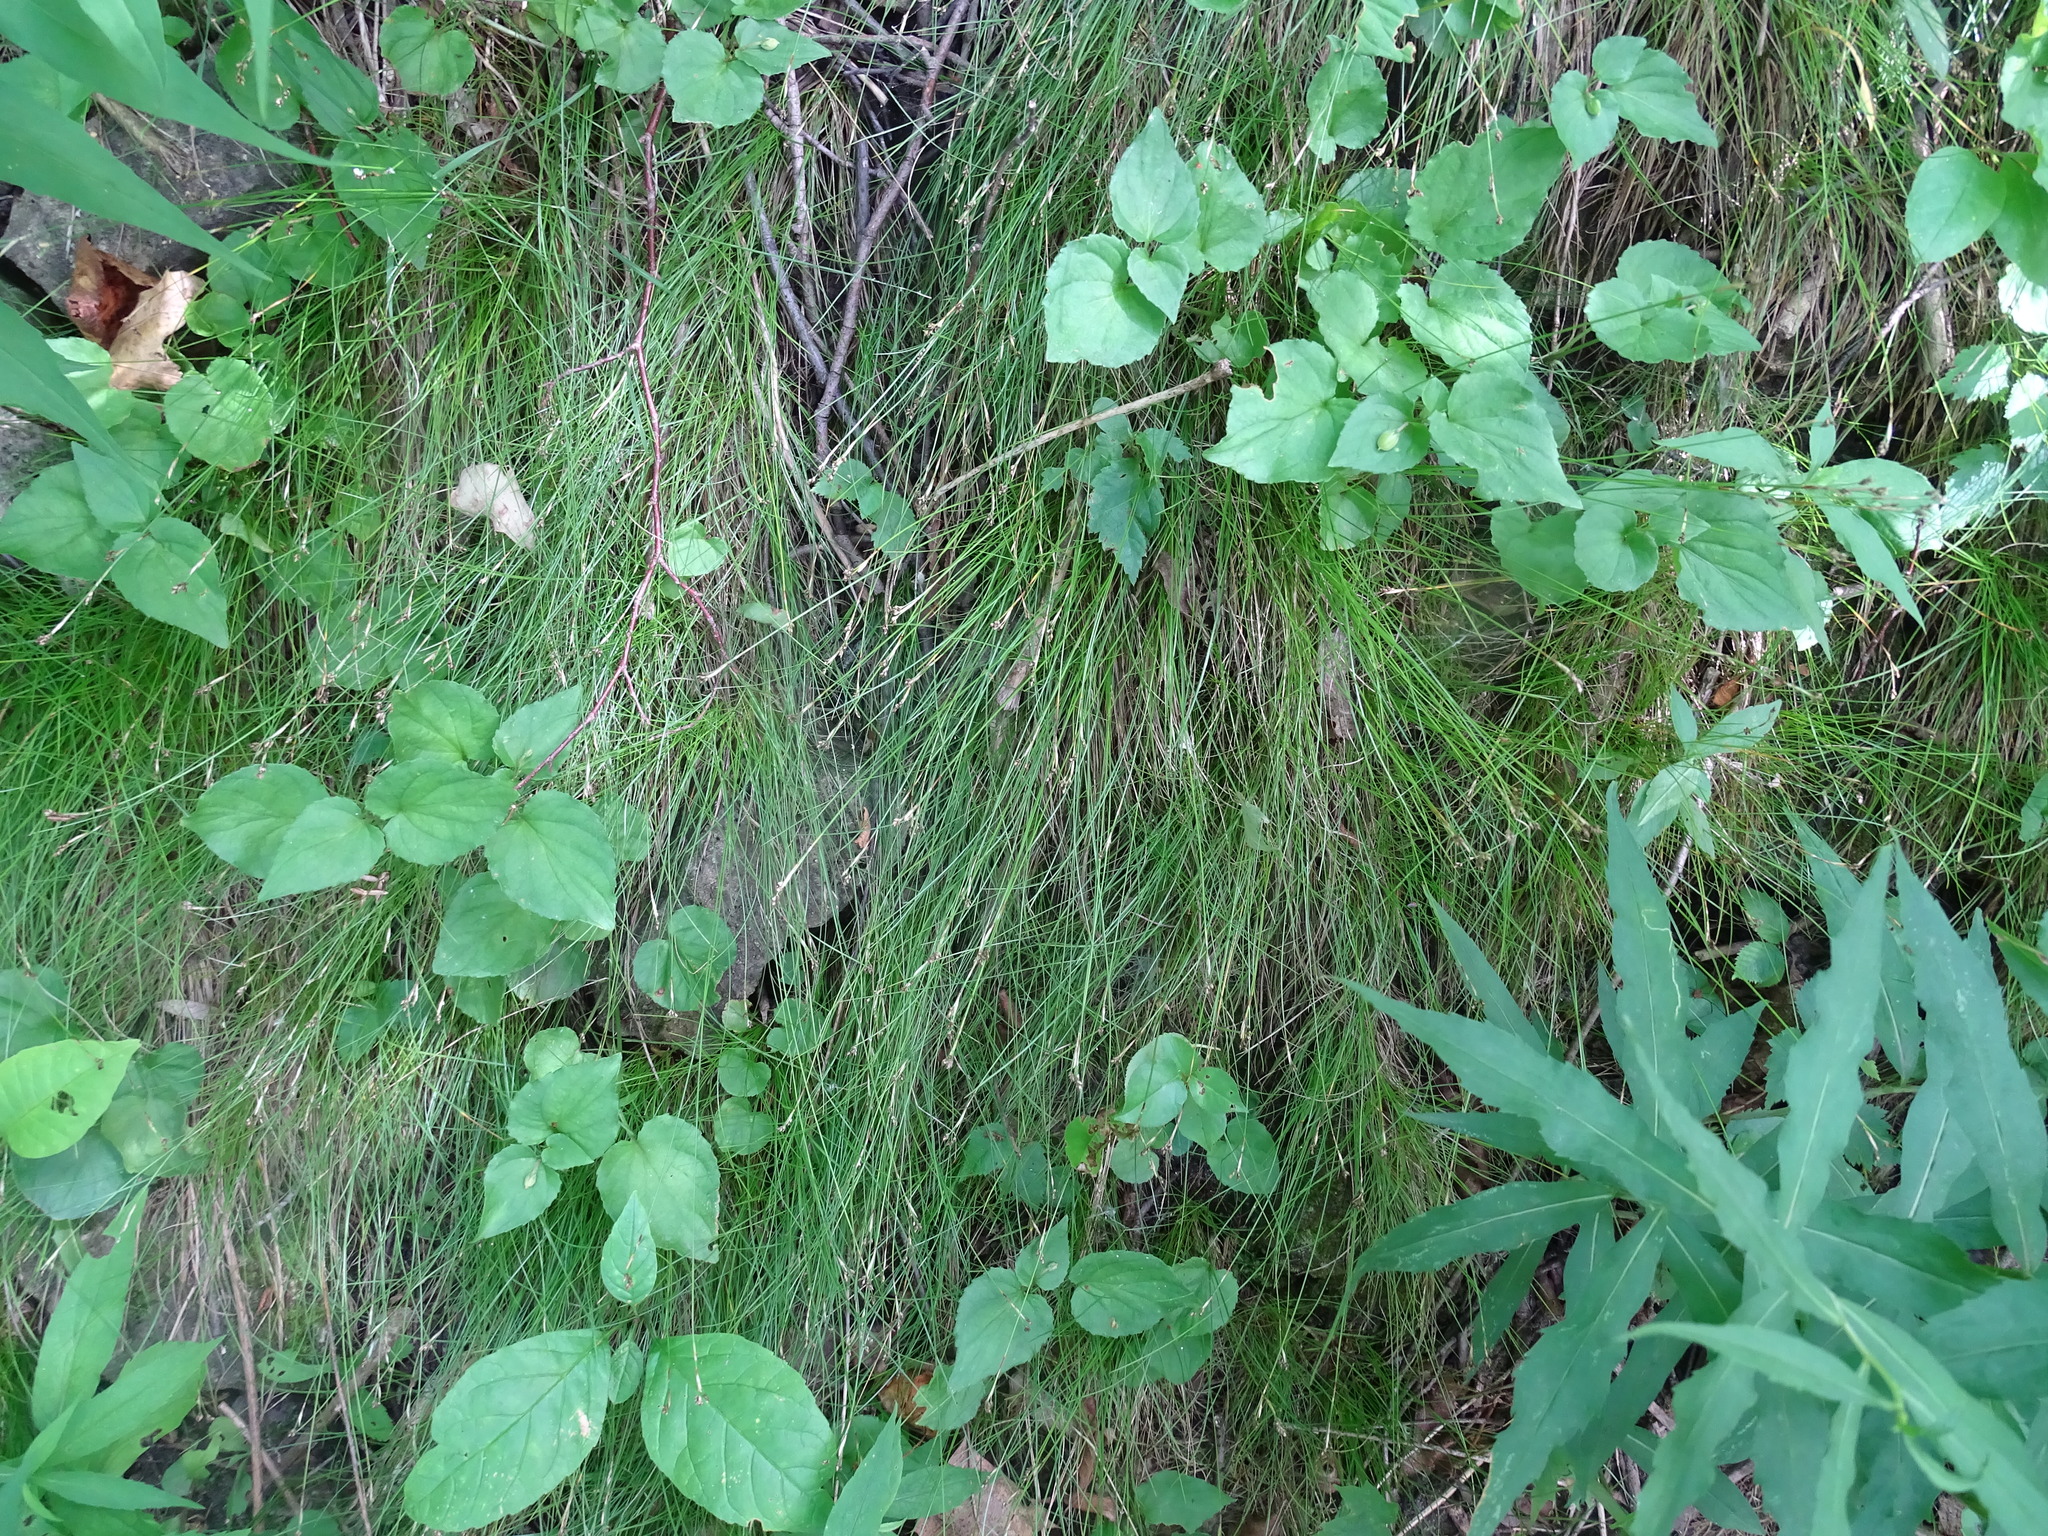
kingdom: Plantae
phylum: Tracheophyta
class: Liliopsida
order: Poales
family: Cyperaceae
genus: Carex
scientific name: Carex eburnea
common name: Bristle-leaved sedge
